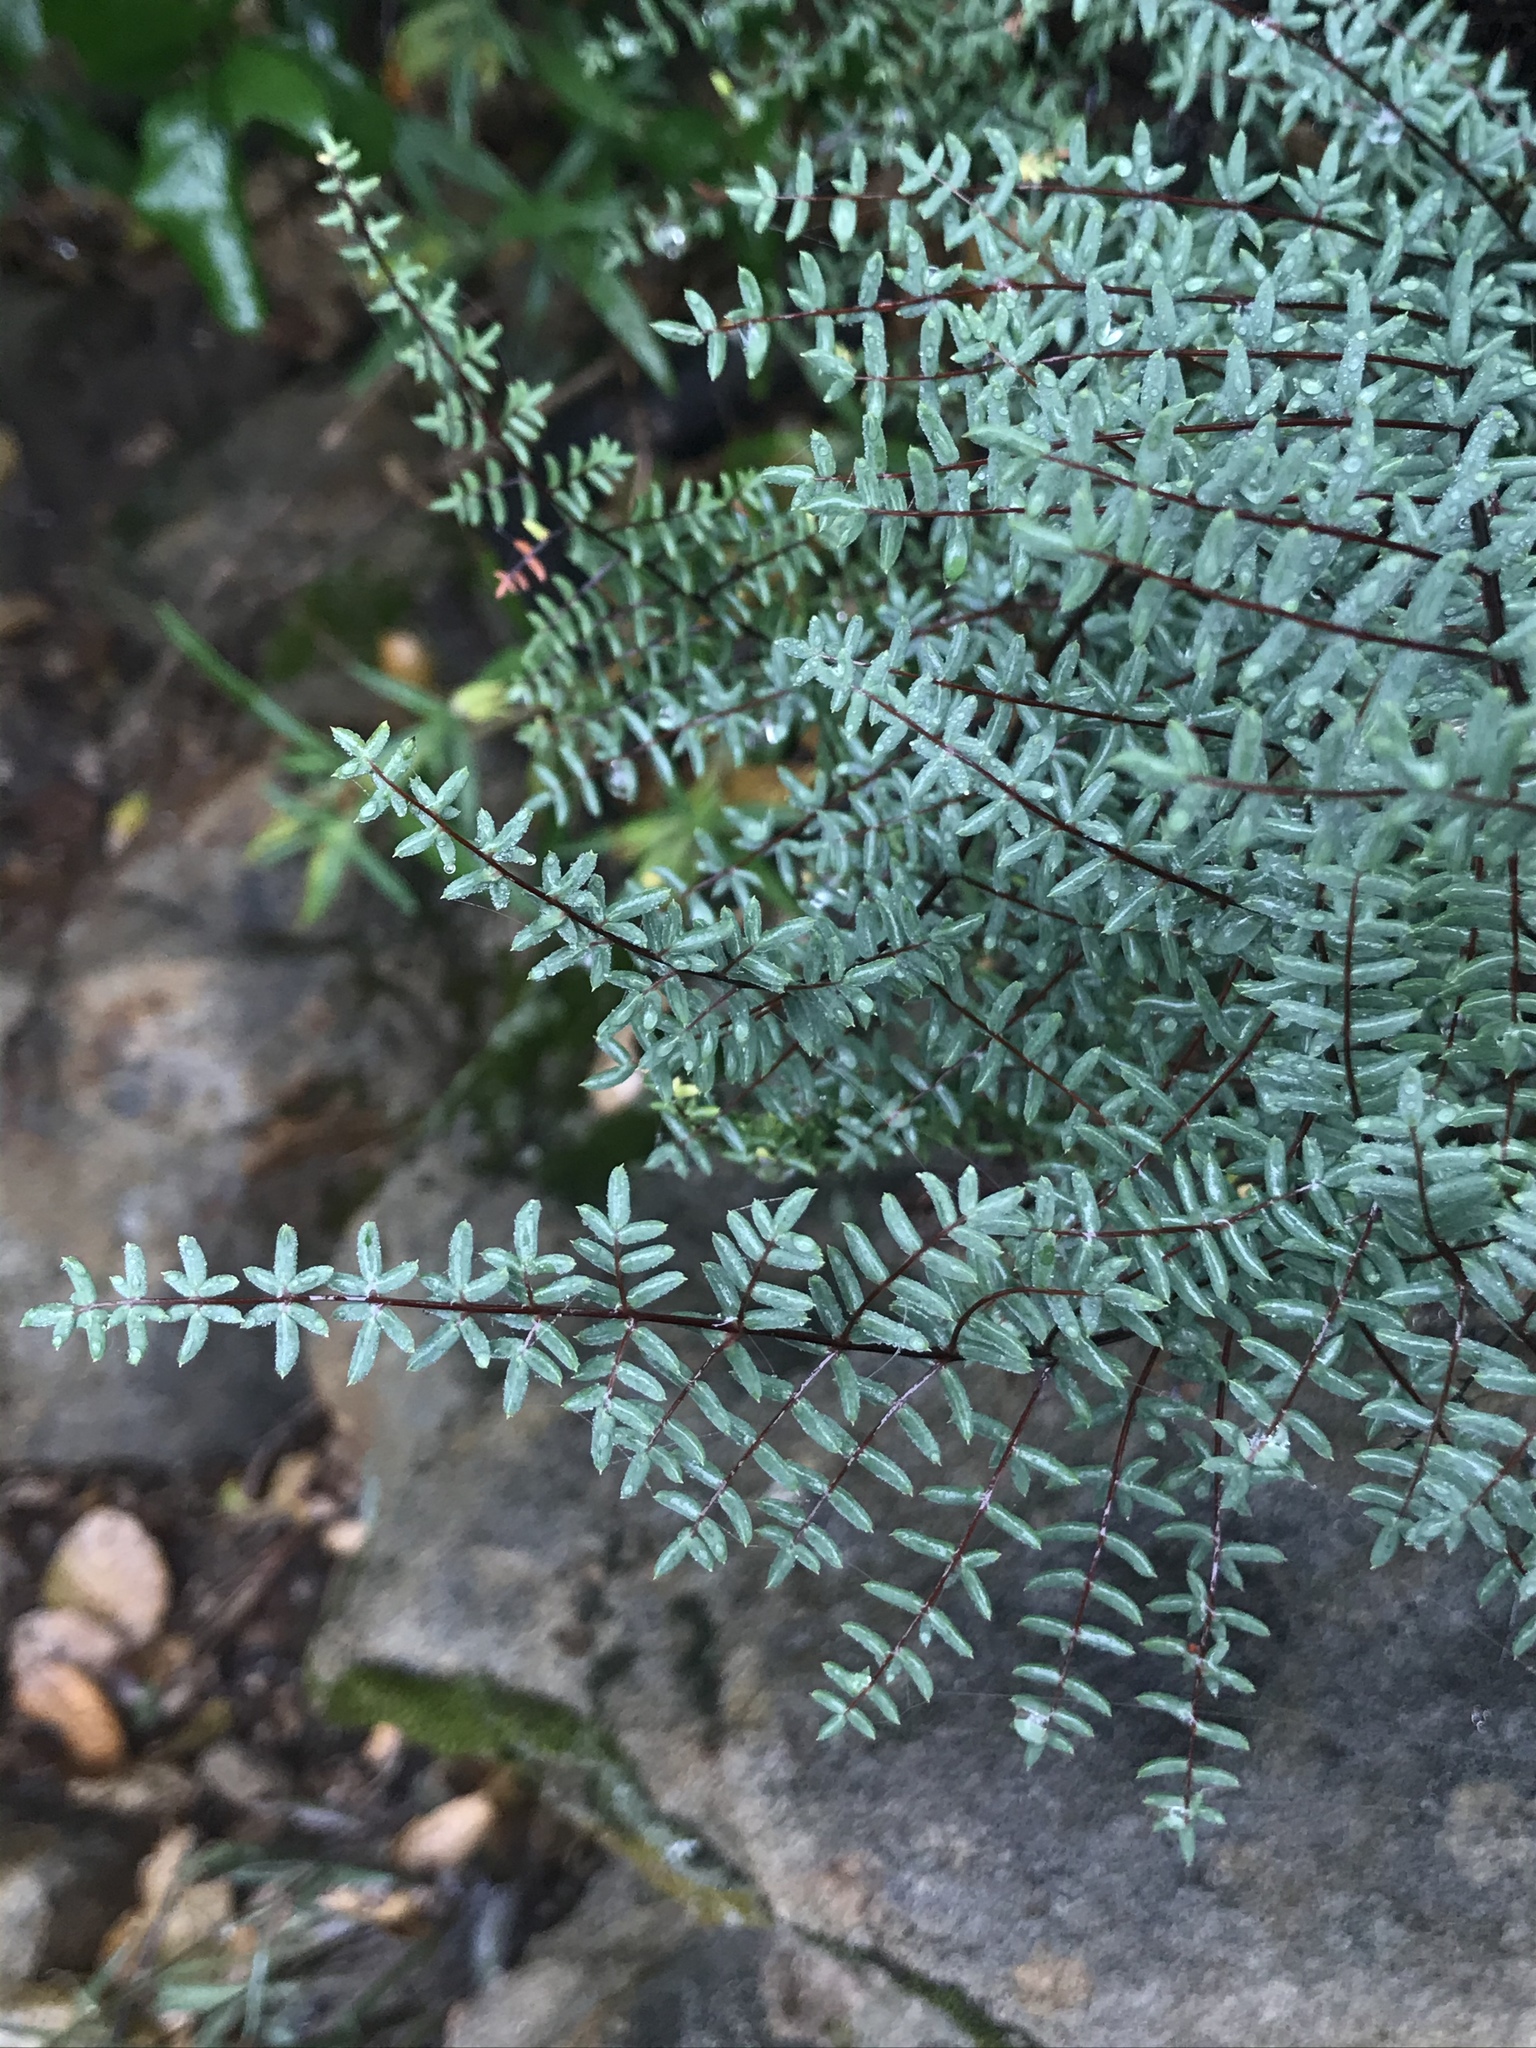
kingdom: Plantae
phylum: Tracheophyta
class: Polypodiopsida
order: Polypodiales
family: Pteridaceae
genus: Pellaea
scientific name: Pellaea mucronata
